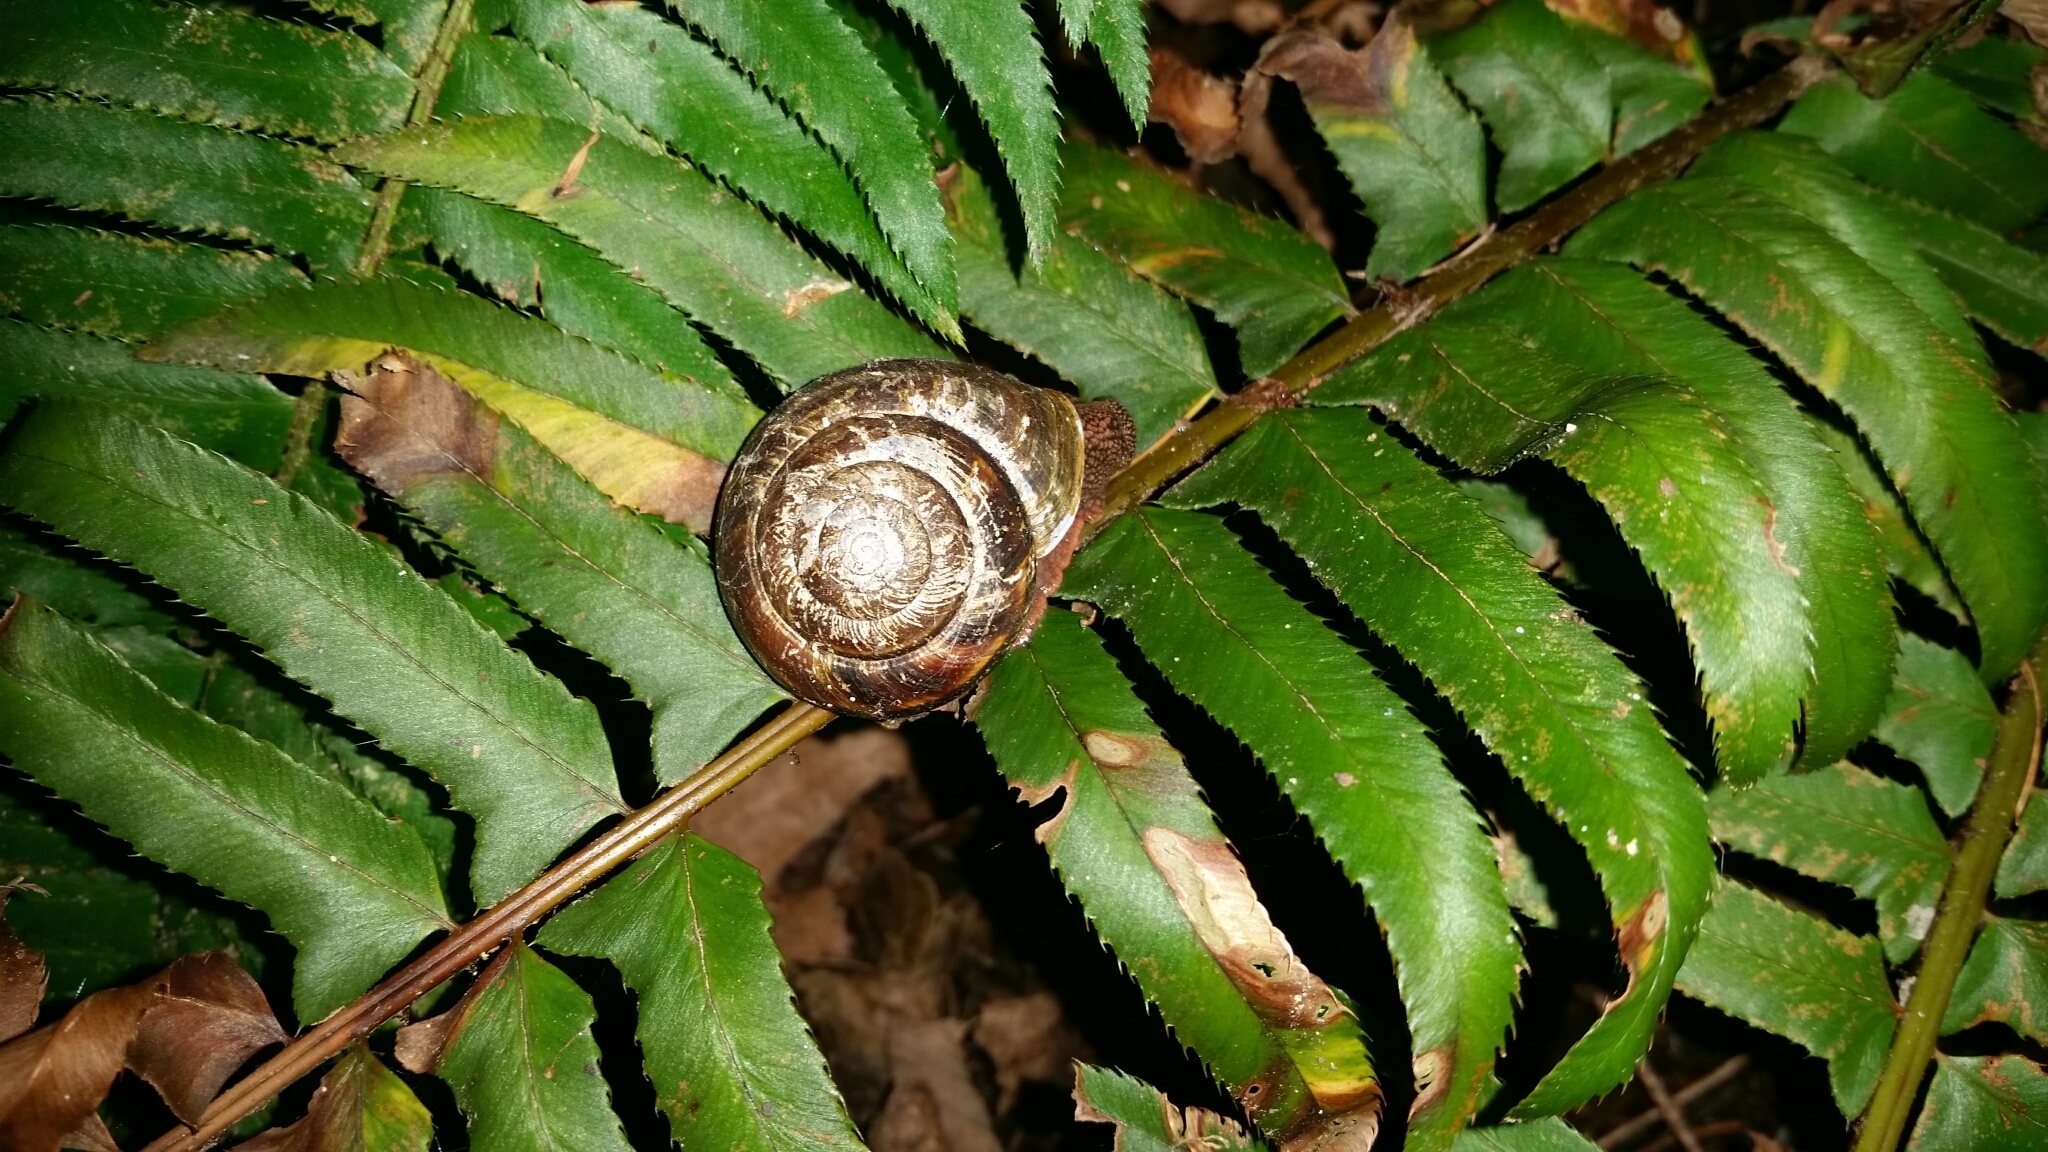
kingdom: Animalia
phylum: Mollusca
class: Gastropoda
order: Stylommatophora
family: Xanthonychidae
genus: Monadenia
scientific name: Monadenia fidelis
